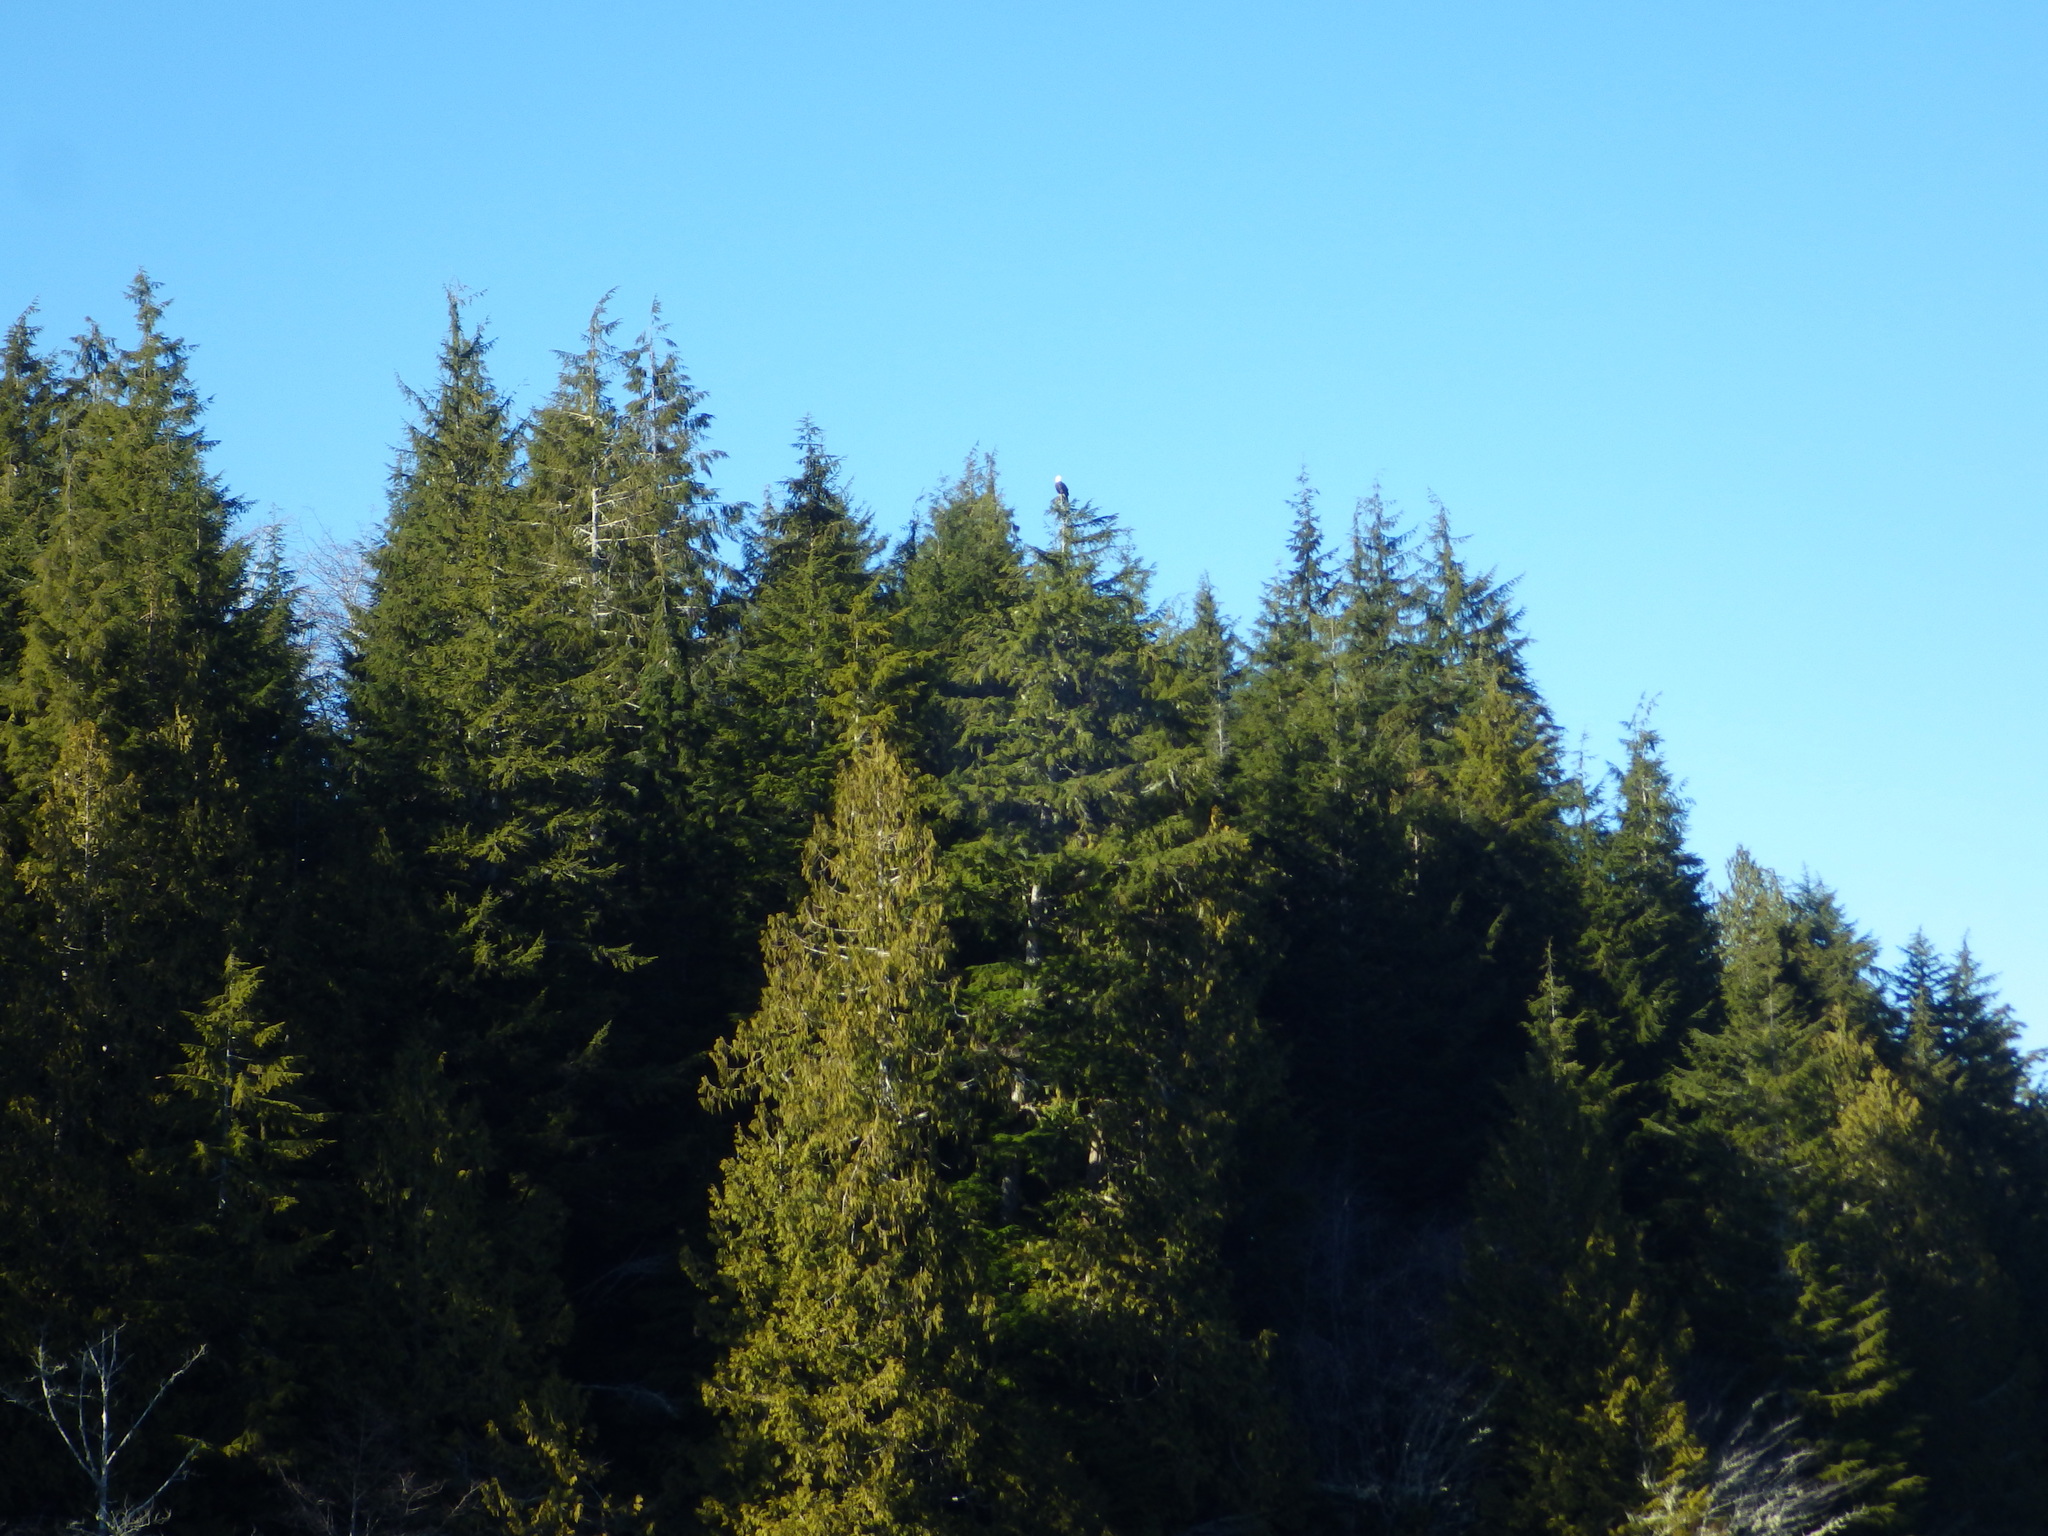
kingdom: Animalia
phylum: Chordata
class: Aves
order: Accipitriformes
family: Accipitridae
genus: Haliaeetus
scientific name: Haliaeetus leucocephalus
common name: Bald eagle
